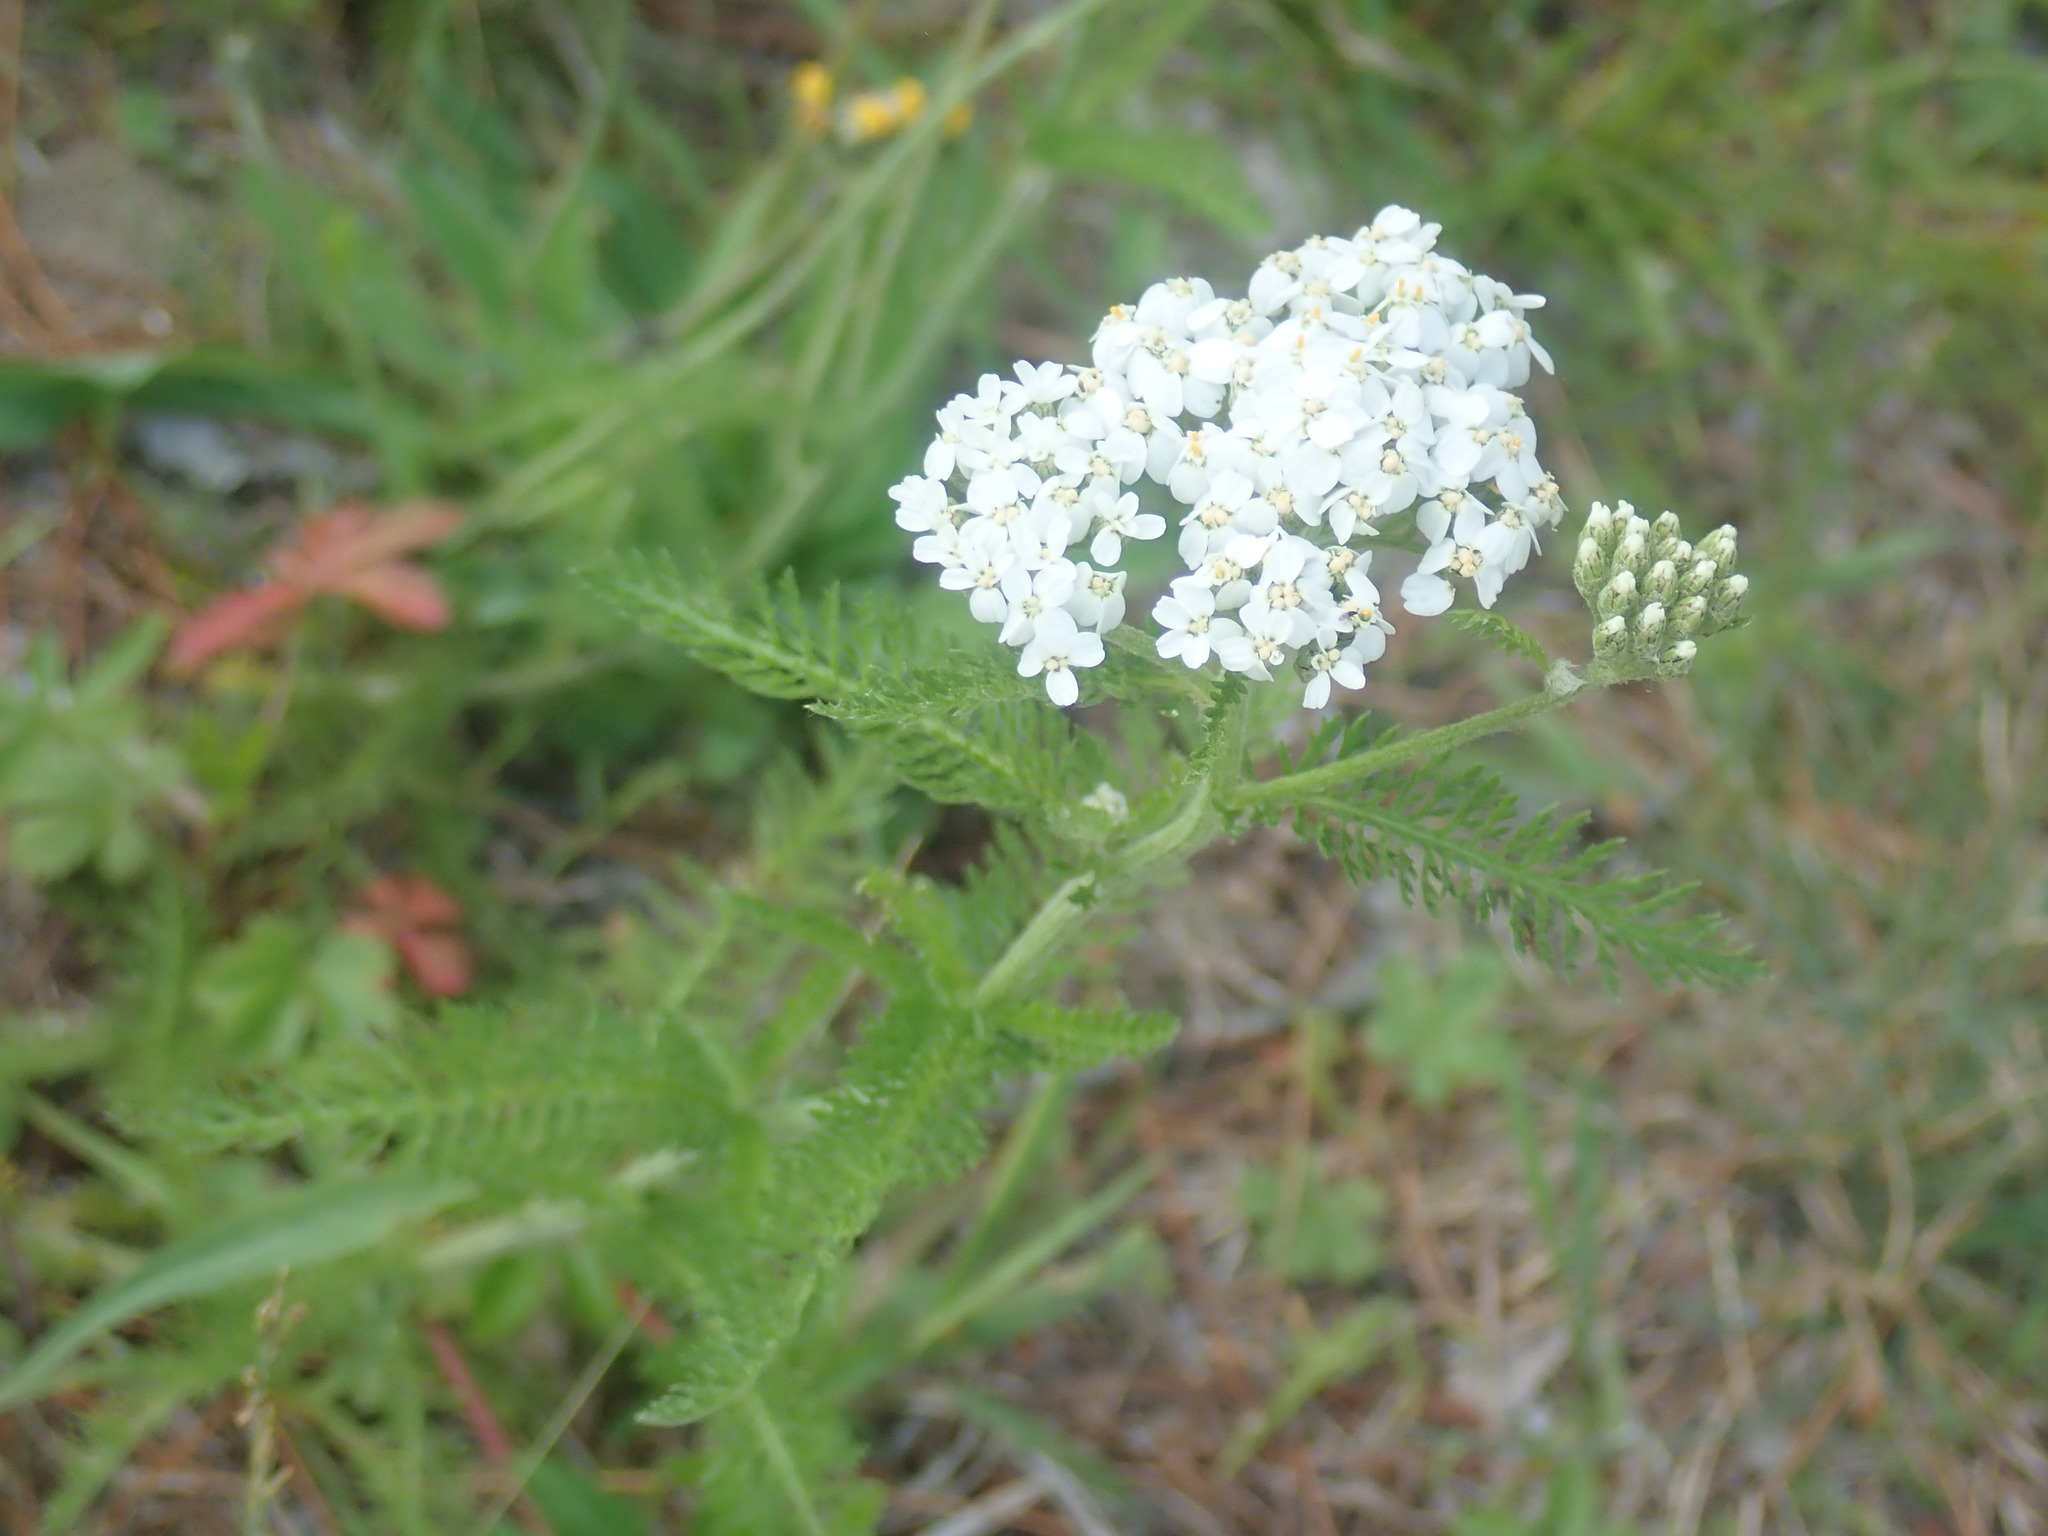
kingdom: Plantae
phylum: Tracheophyta
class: Magnoliopsida
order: Asterales
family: Asteraceae
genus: Achillea
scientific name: Achillea millefolium
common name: Yarrow
